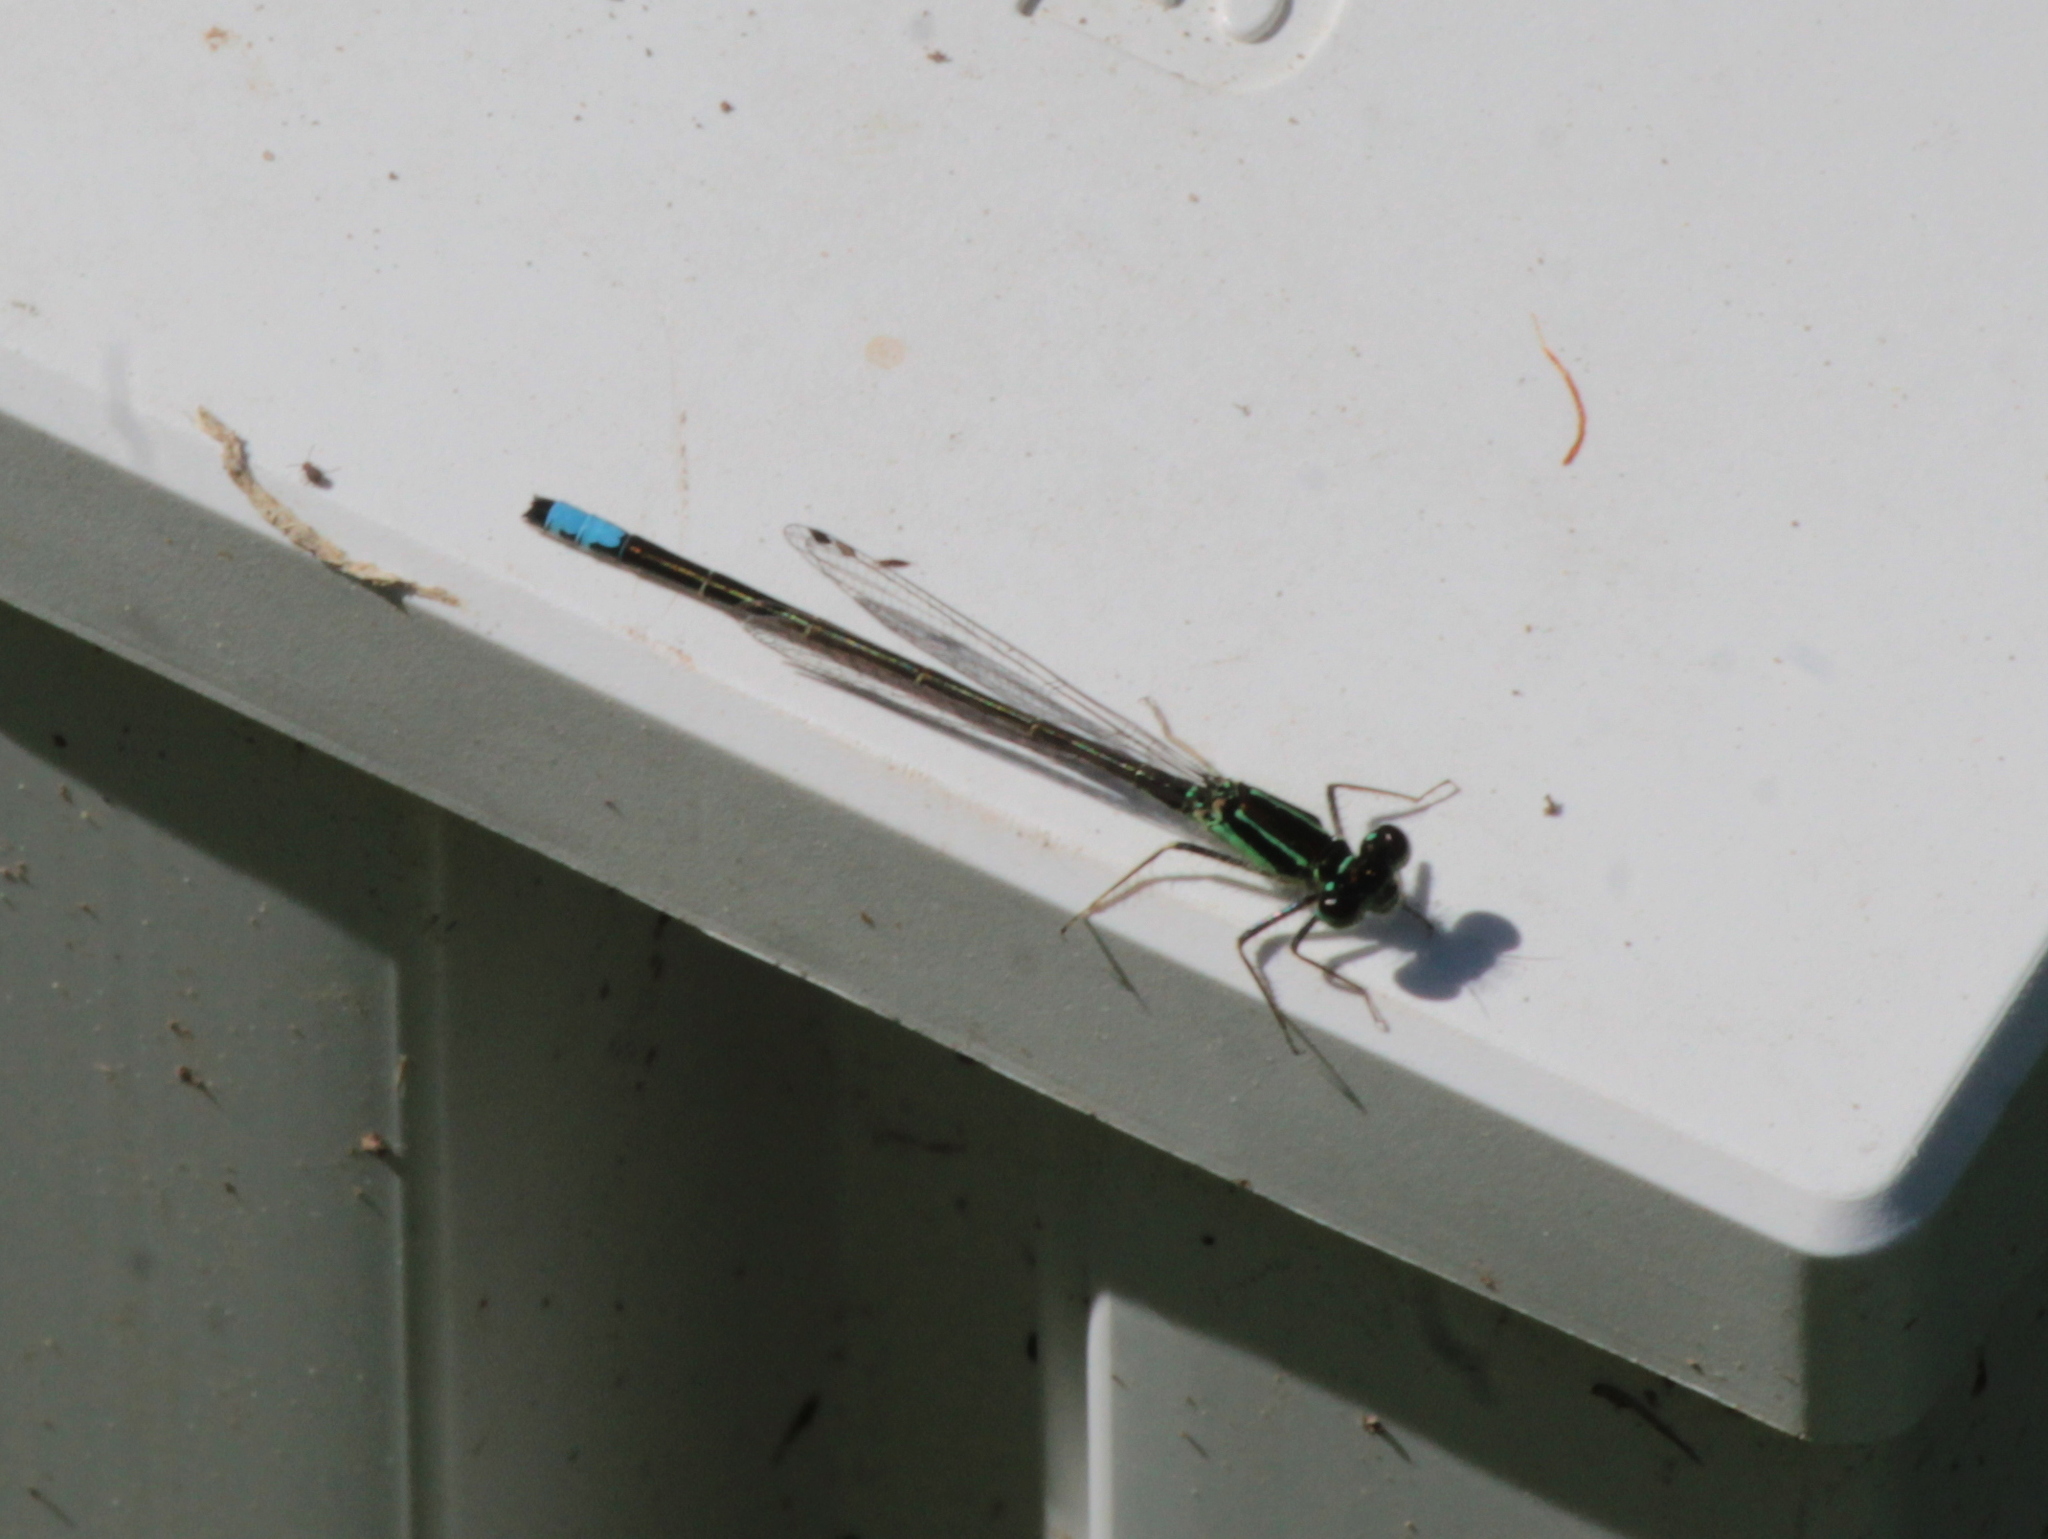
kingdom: Animalia
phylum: Arthropoda
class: Insecta
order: Odonata
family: Coenagrionidae
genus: Ischnura
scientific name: Ischnura verticalis
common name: Eastern forktail
